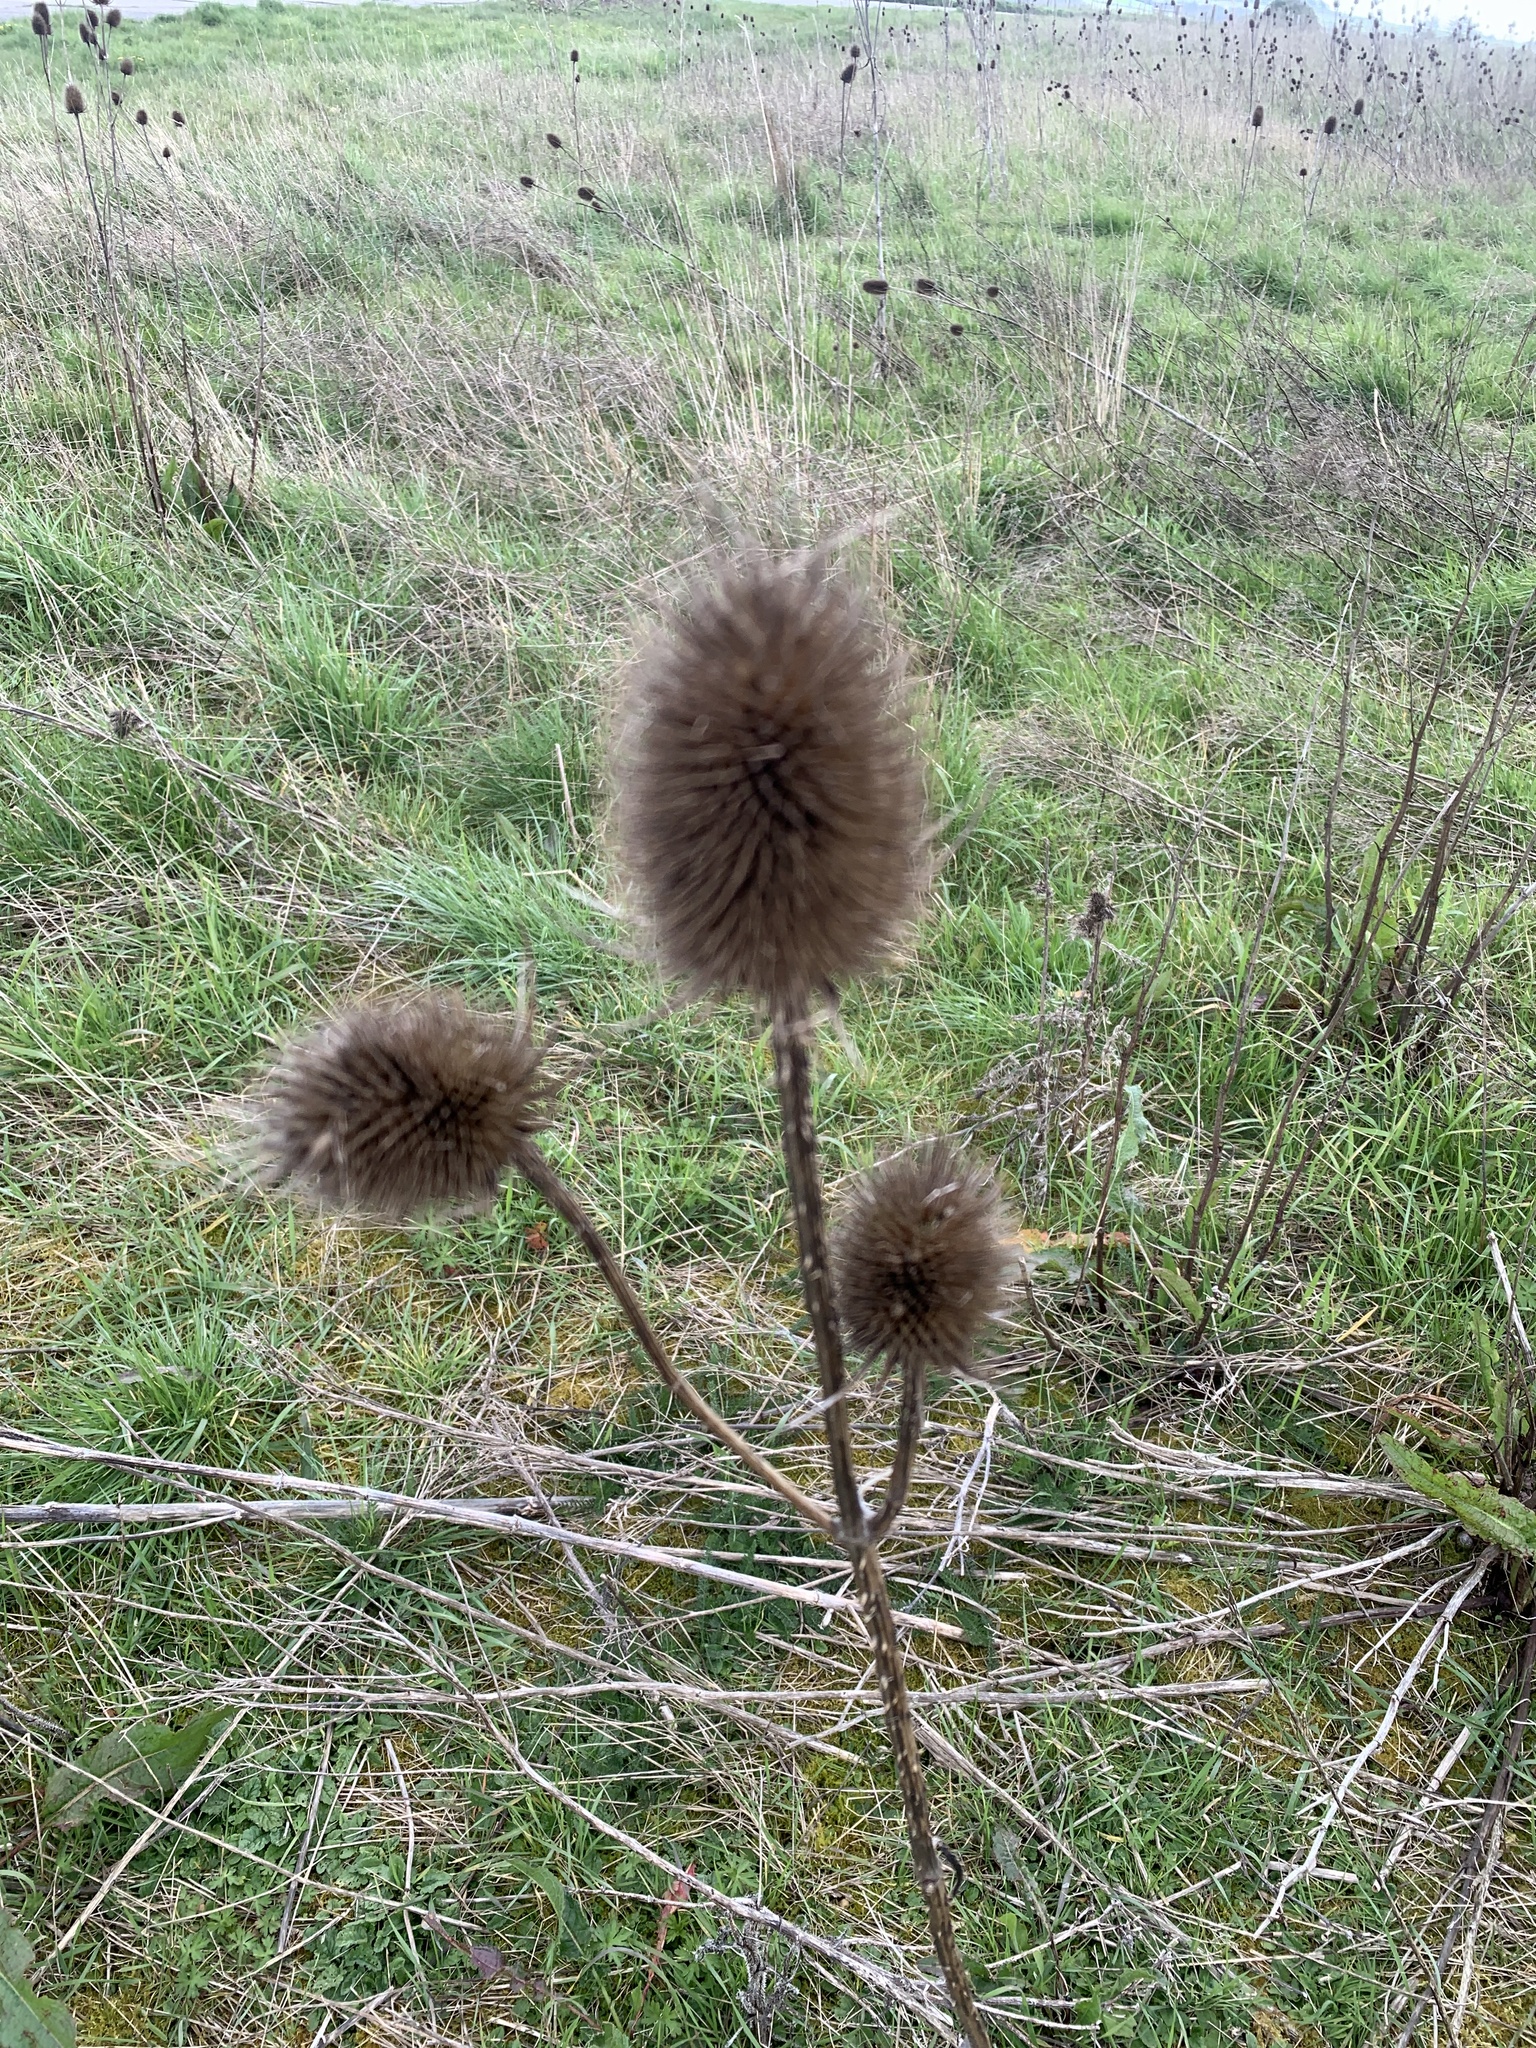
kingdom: Plantae
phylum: Tracheophyta
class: Magnoliopsida
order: Dipsacales
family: Caprifoliaceae
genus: Dipsacus
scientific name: Dipsacus fullonum
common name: Teasel
